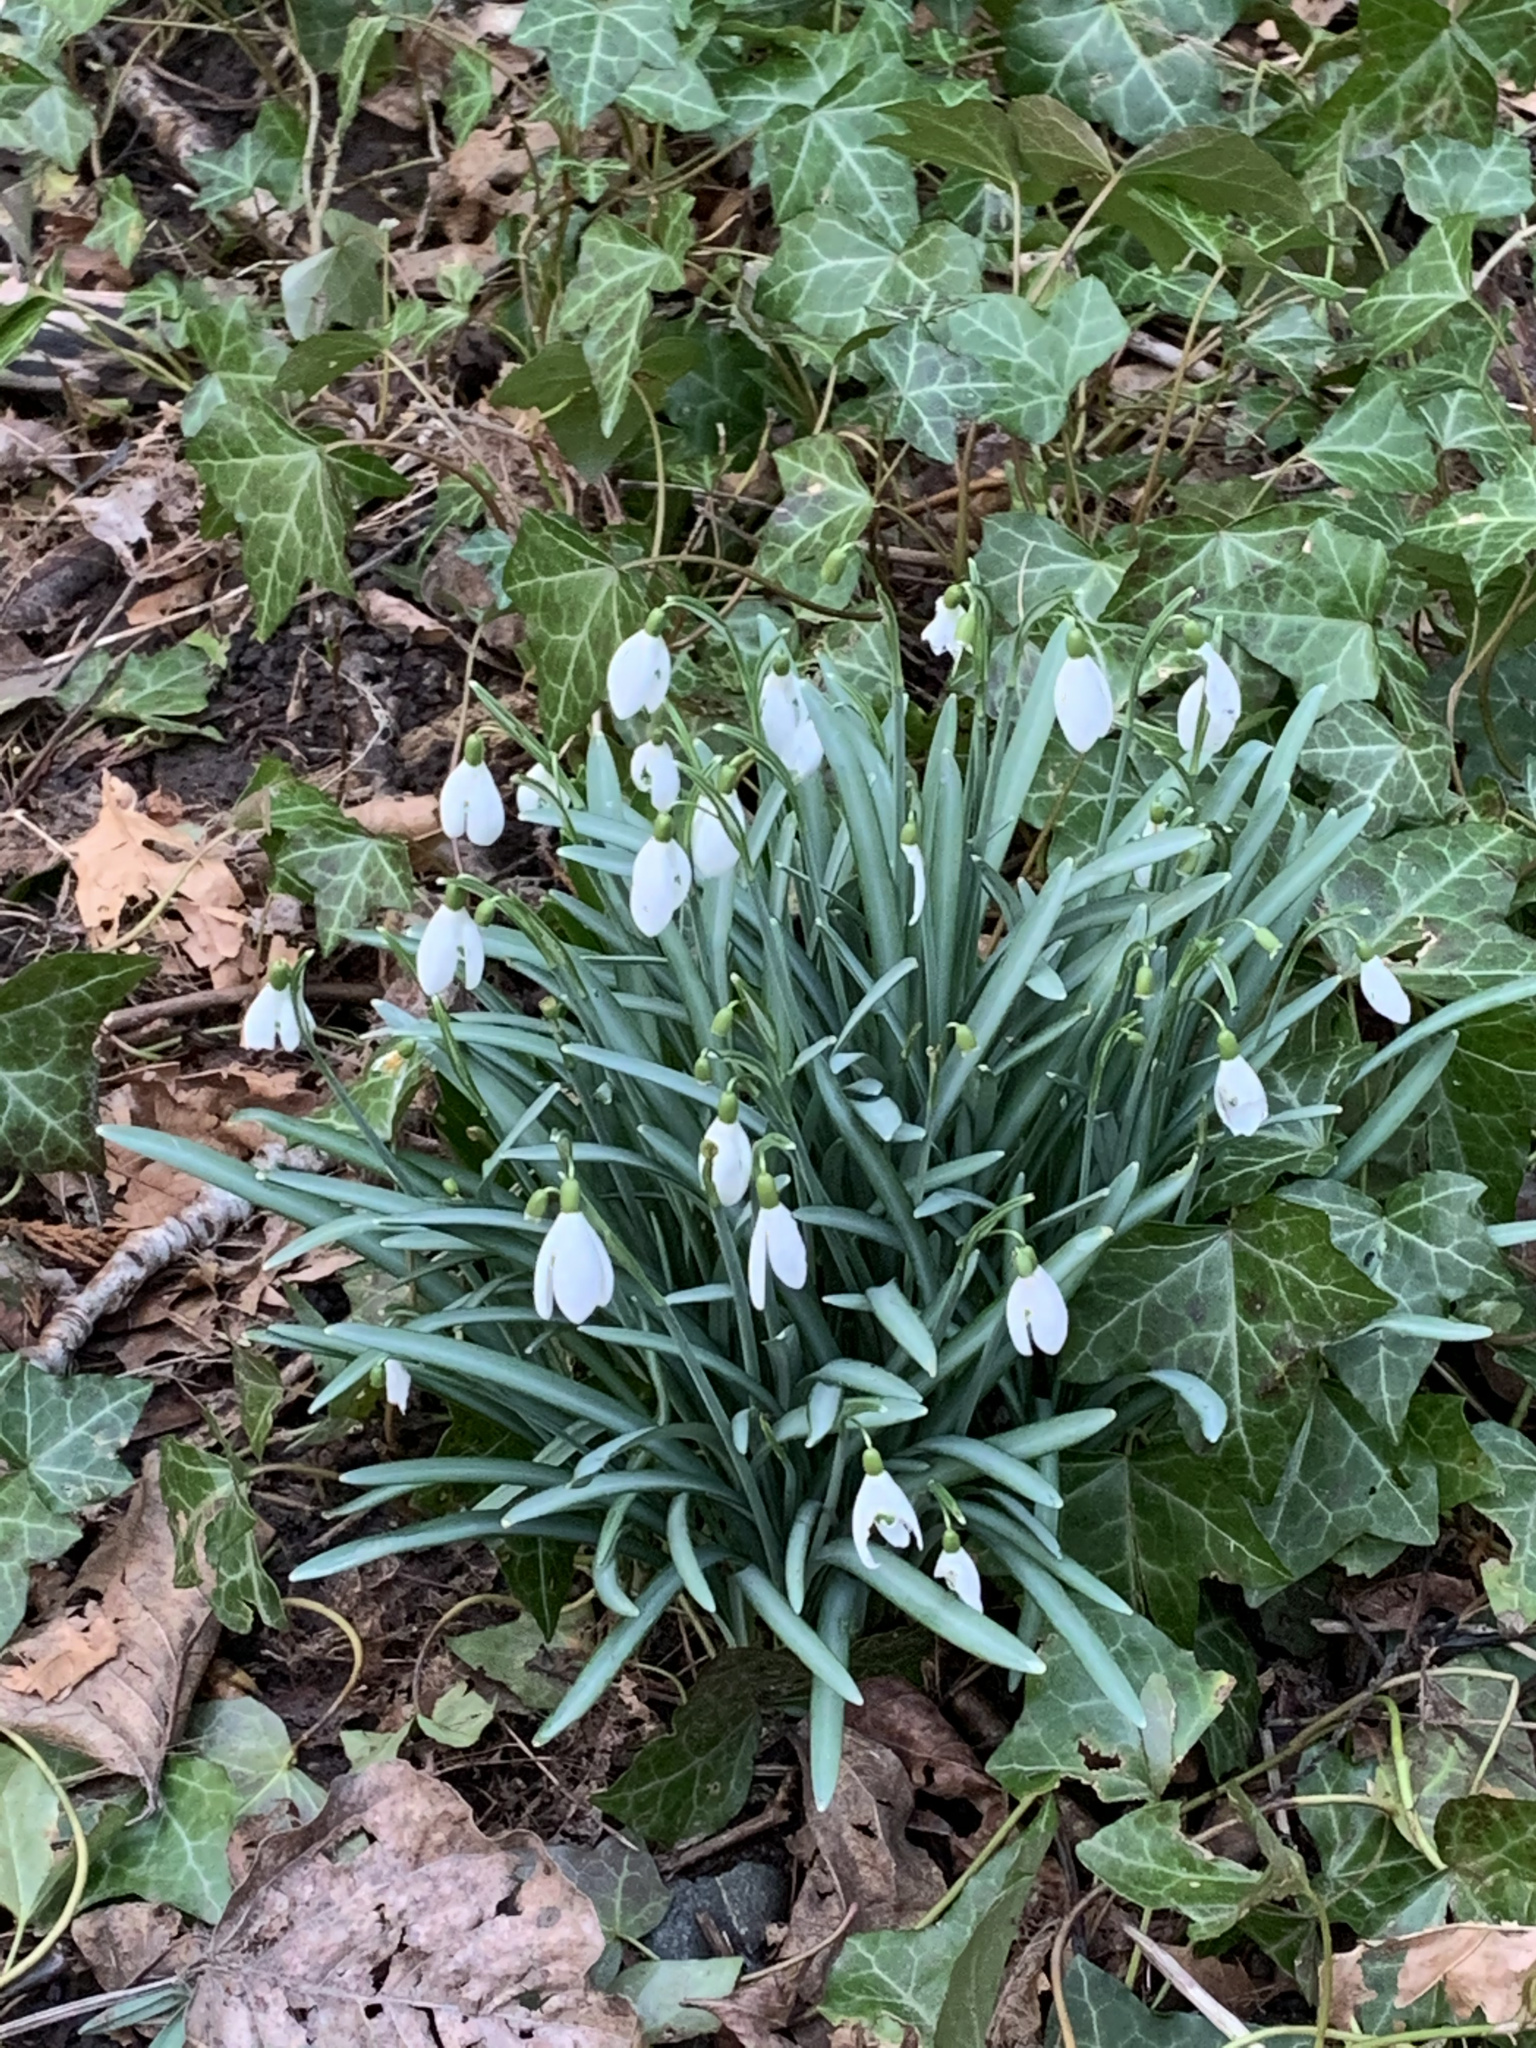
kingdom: Plantae
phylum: Tracheophyta
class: Liliopsida
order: Asparagales
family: Amaryllidaceae
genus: Galanthus
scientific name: Galanthus nivalis
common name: Snowdrop
